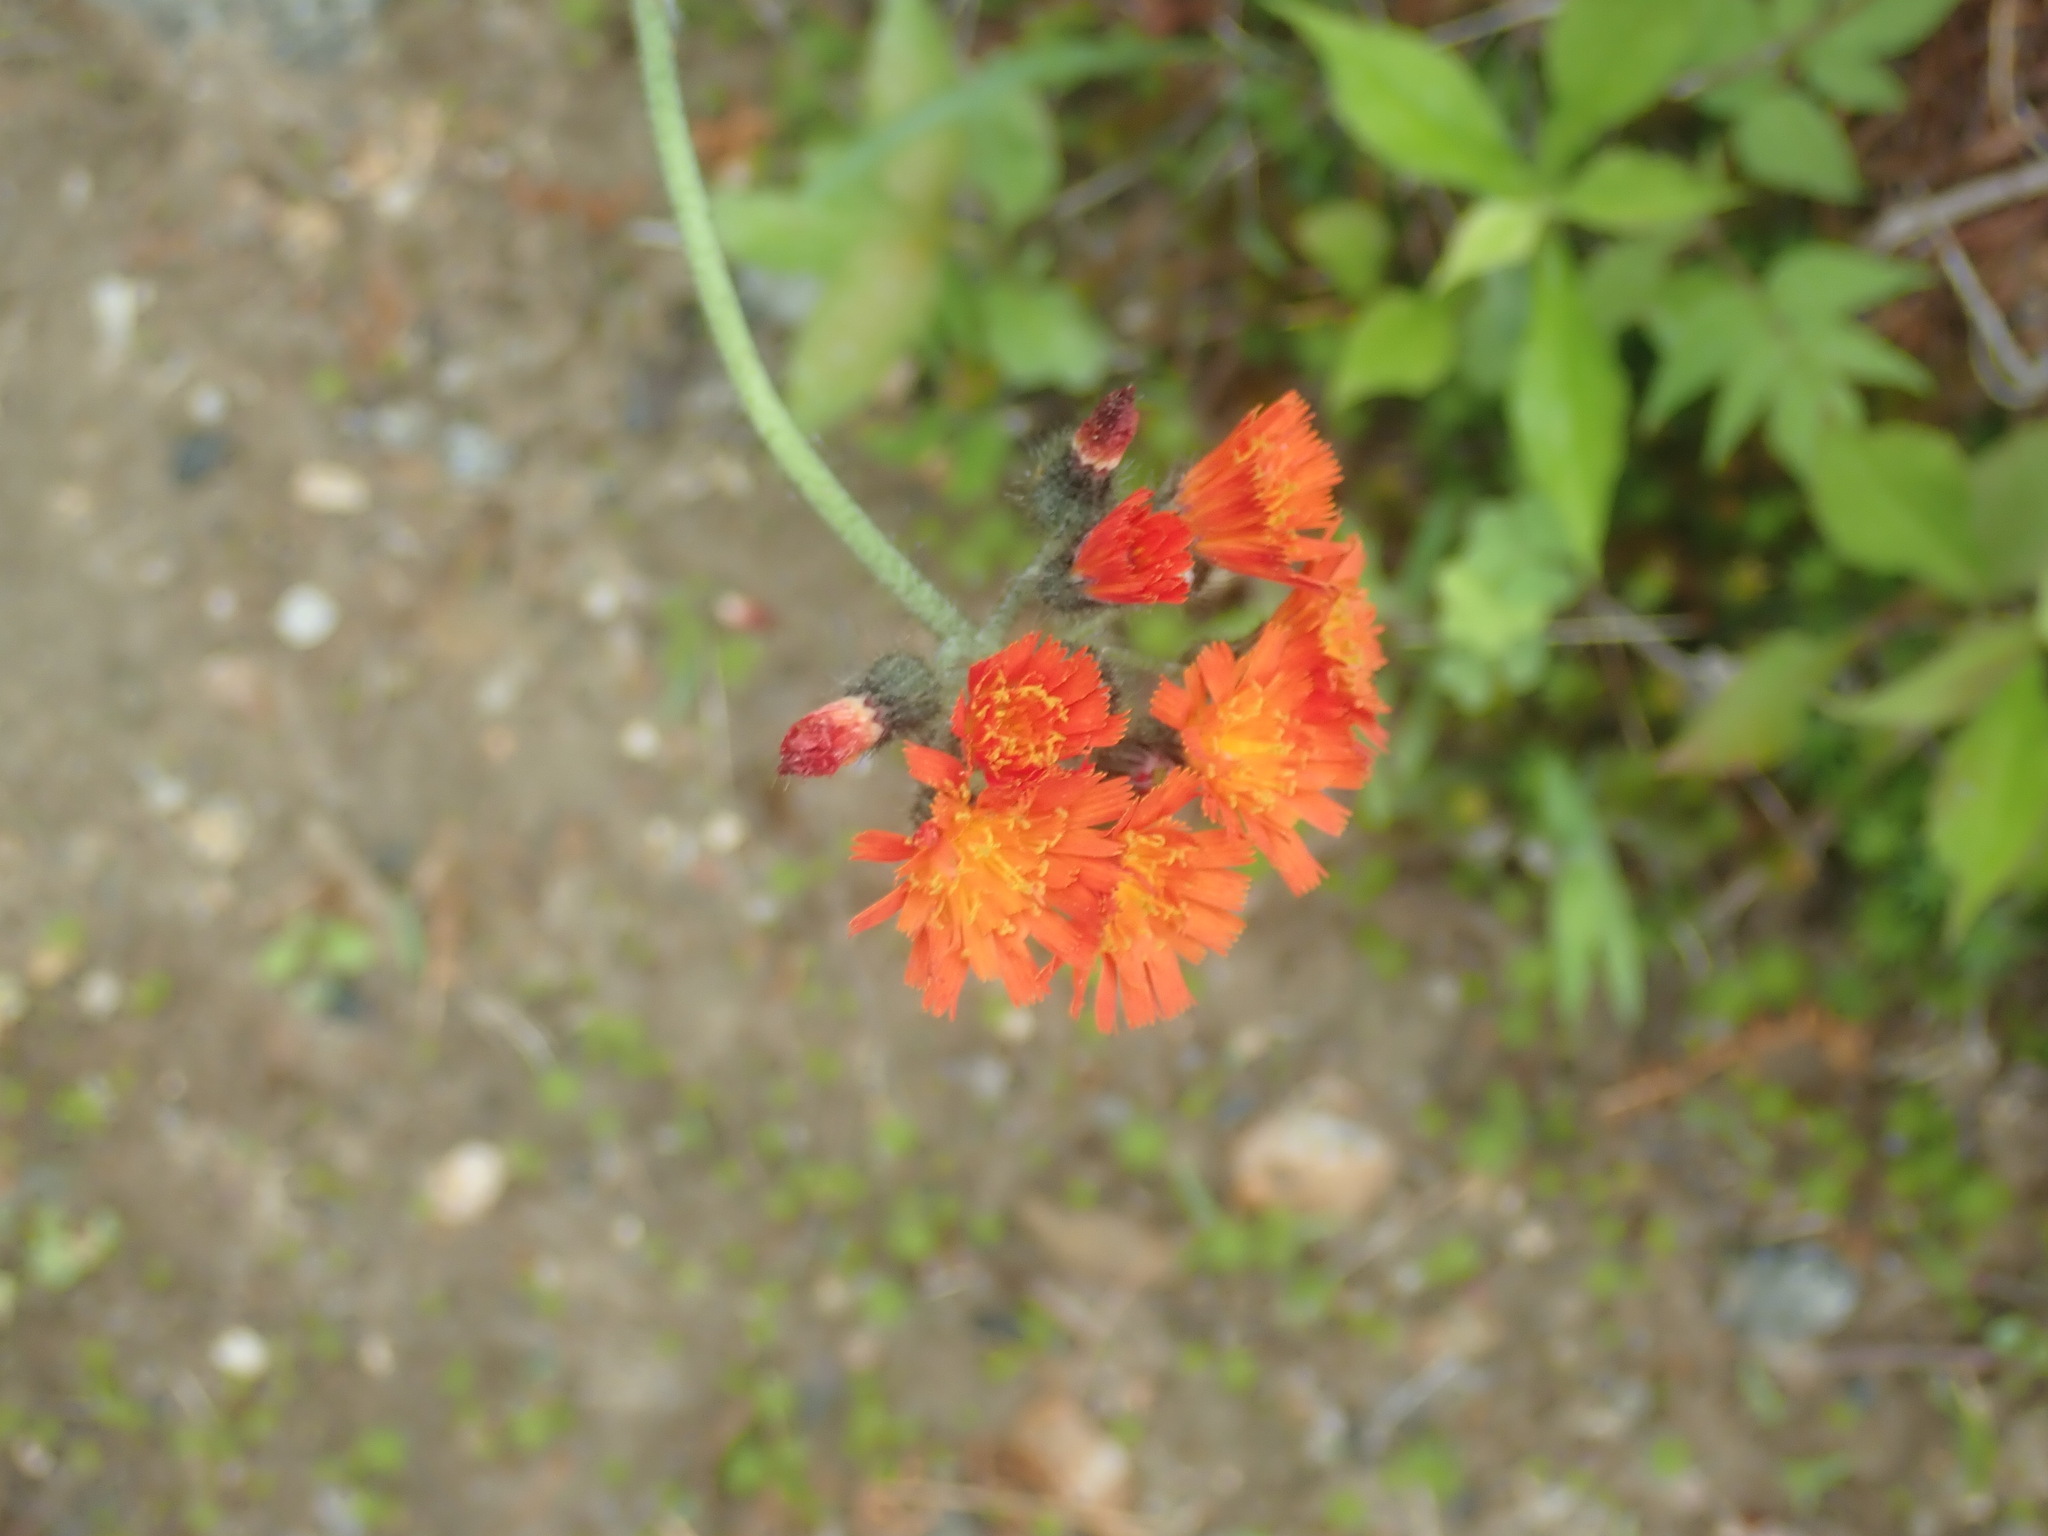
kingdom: Plantae
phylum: Tracheophyta
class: Magnoliopsida
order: Asterales
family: Asteraceae
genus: Pilosella
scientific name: Pilosella aurantiaca
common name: Fox-and-cubs
